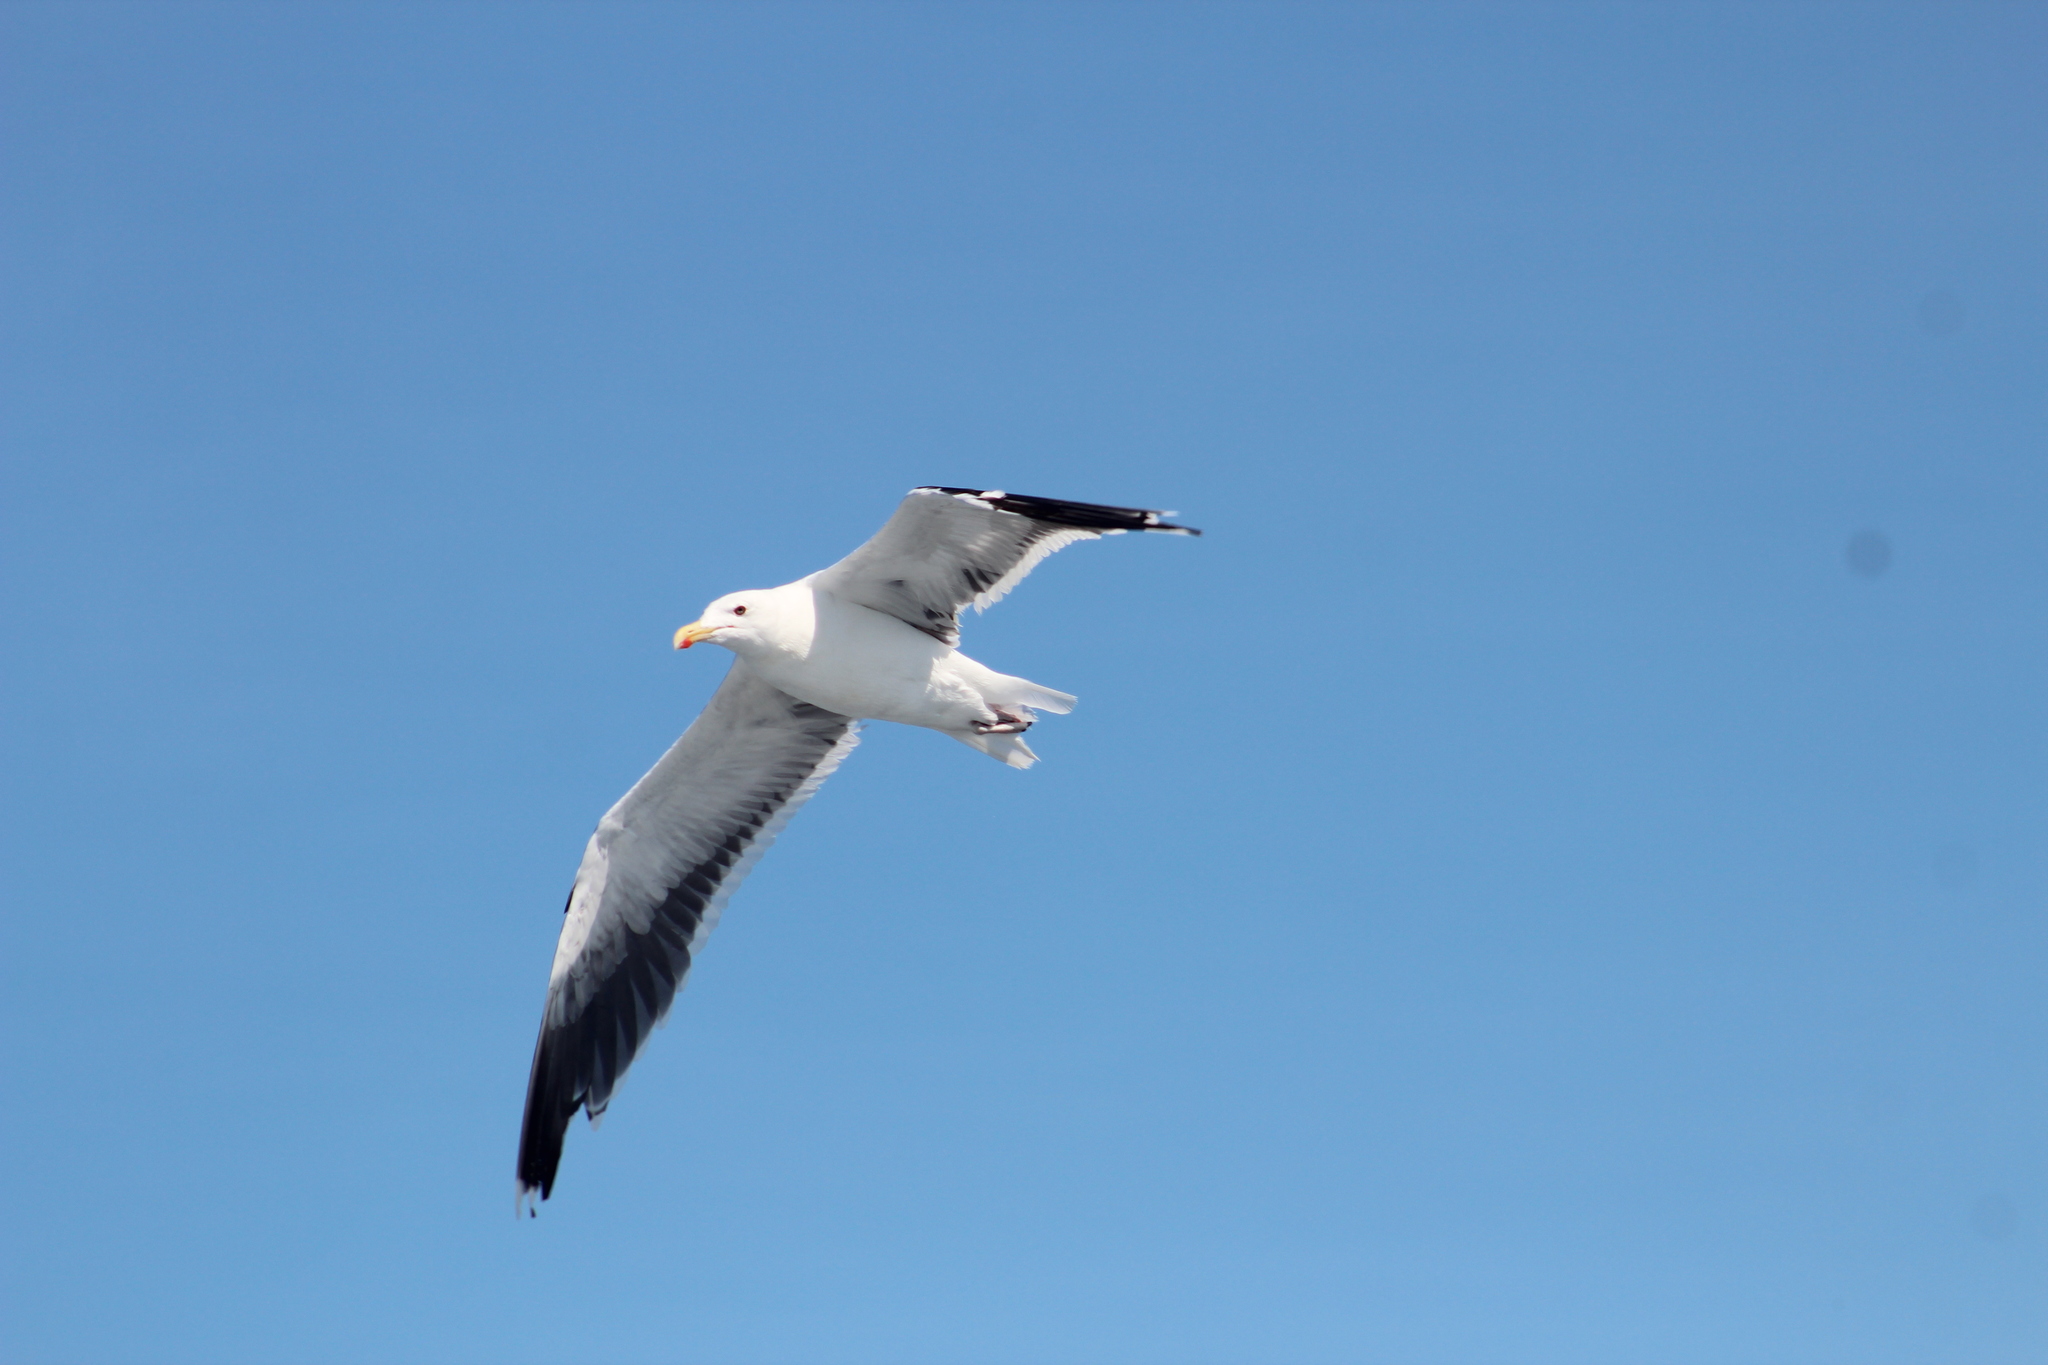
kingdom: Animalia
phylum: Chordata
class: Aves
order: Charadriiformes
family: Laridae
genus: Larus
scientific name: Larus marinus
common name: Great black-backed gull
